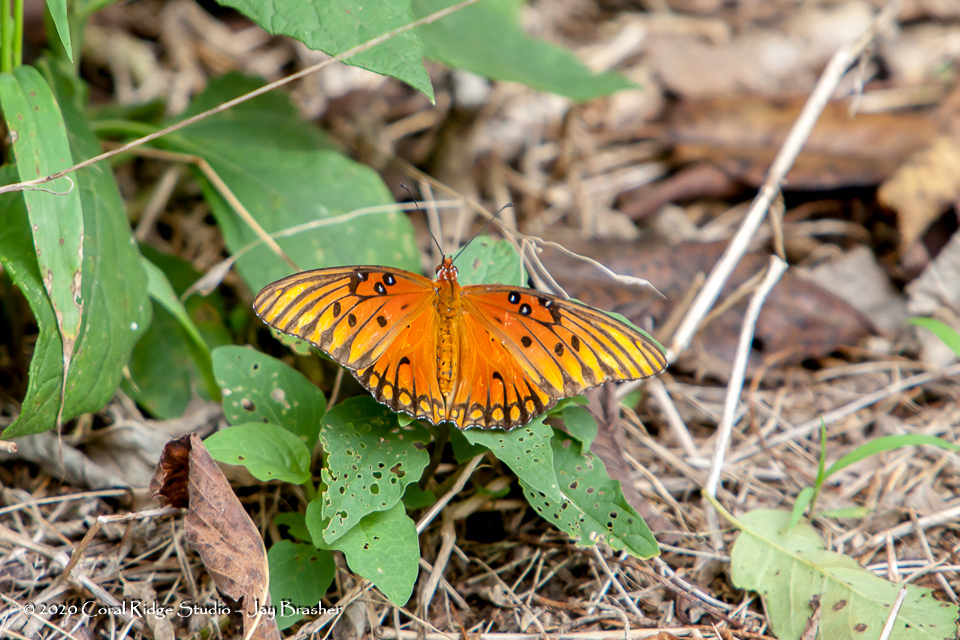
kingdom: Animalia
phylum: Arthropoda
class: Insecta
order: Lepidoptera
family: Nymphalidae
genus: Dione
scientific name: Dione vanillae
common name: Gulf fritillary
